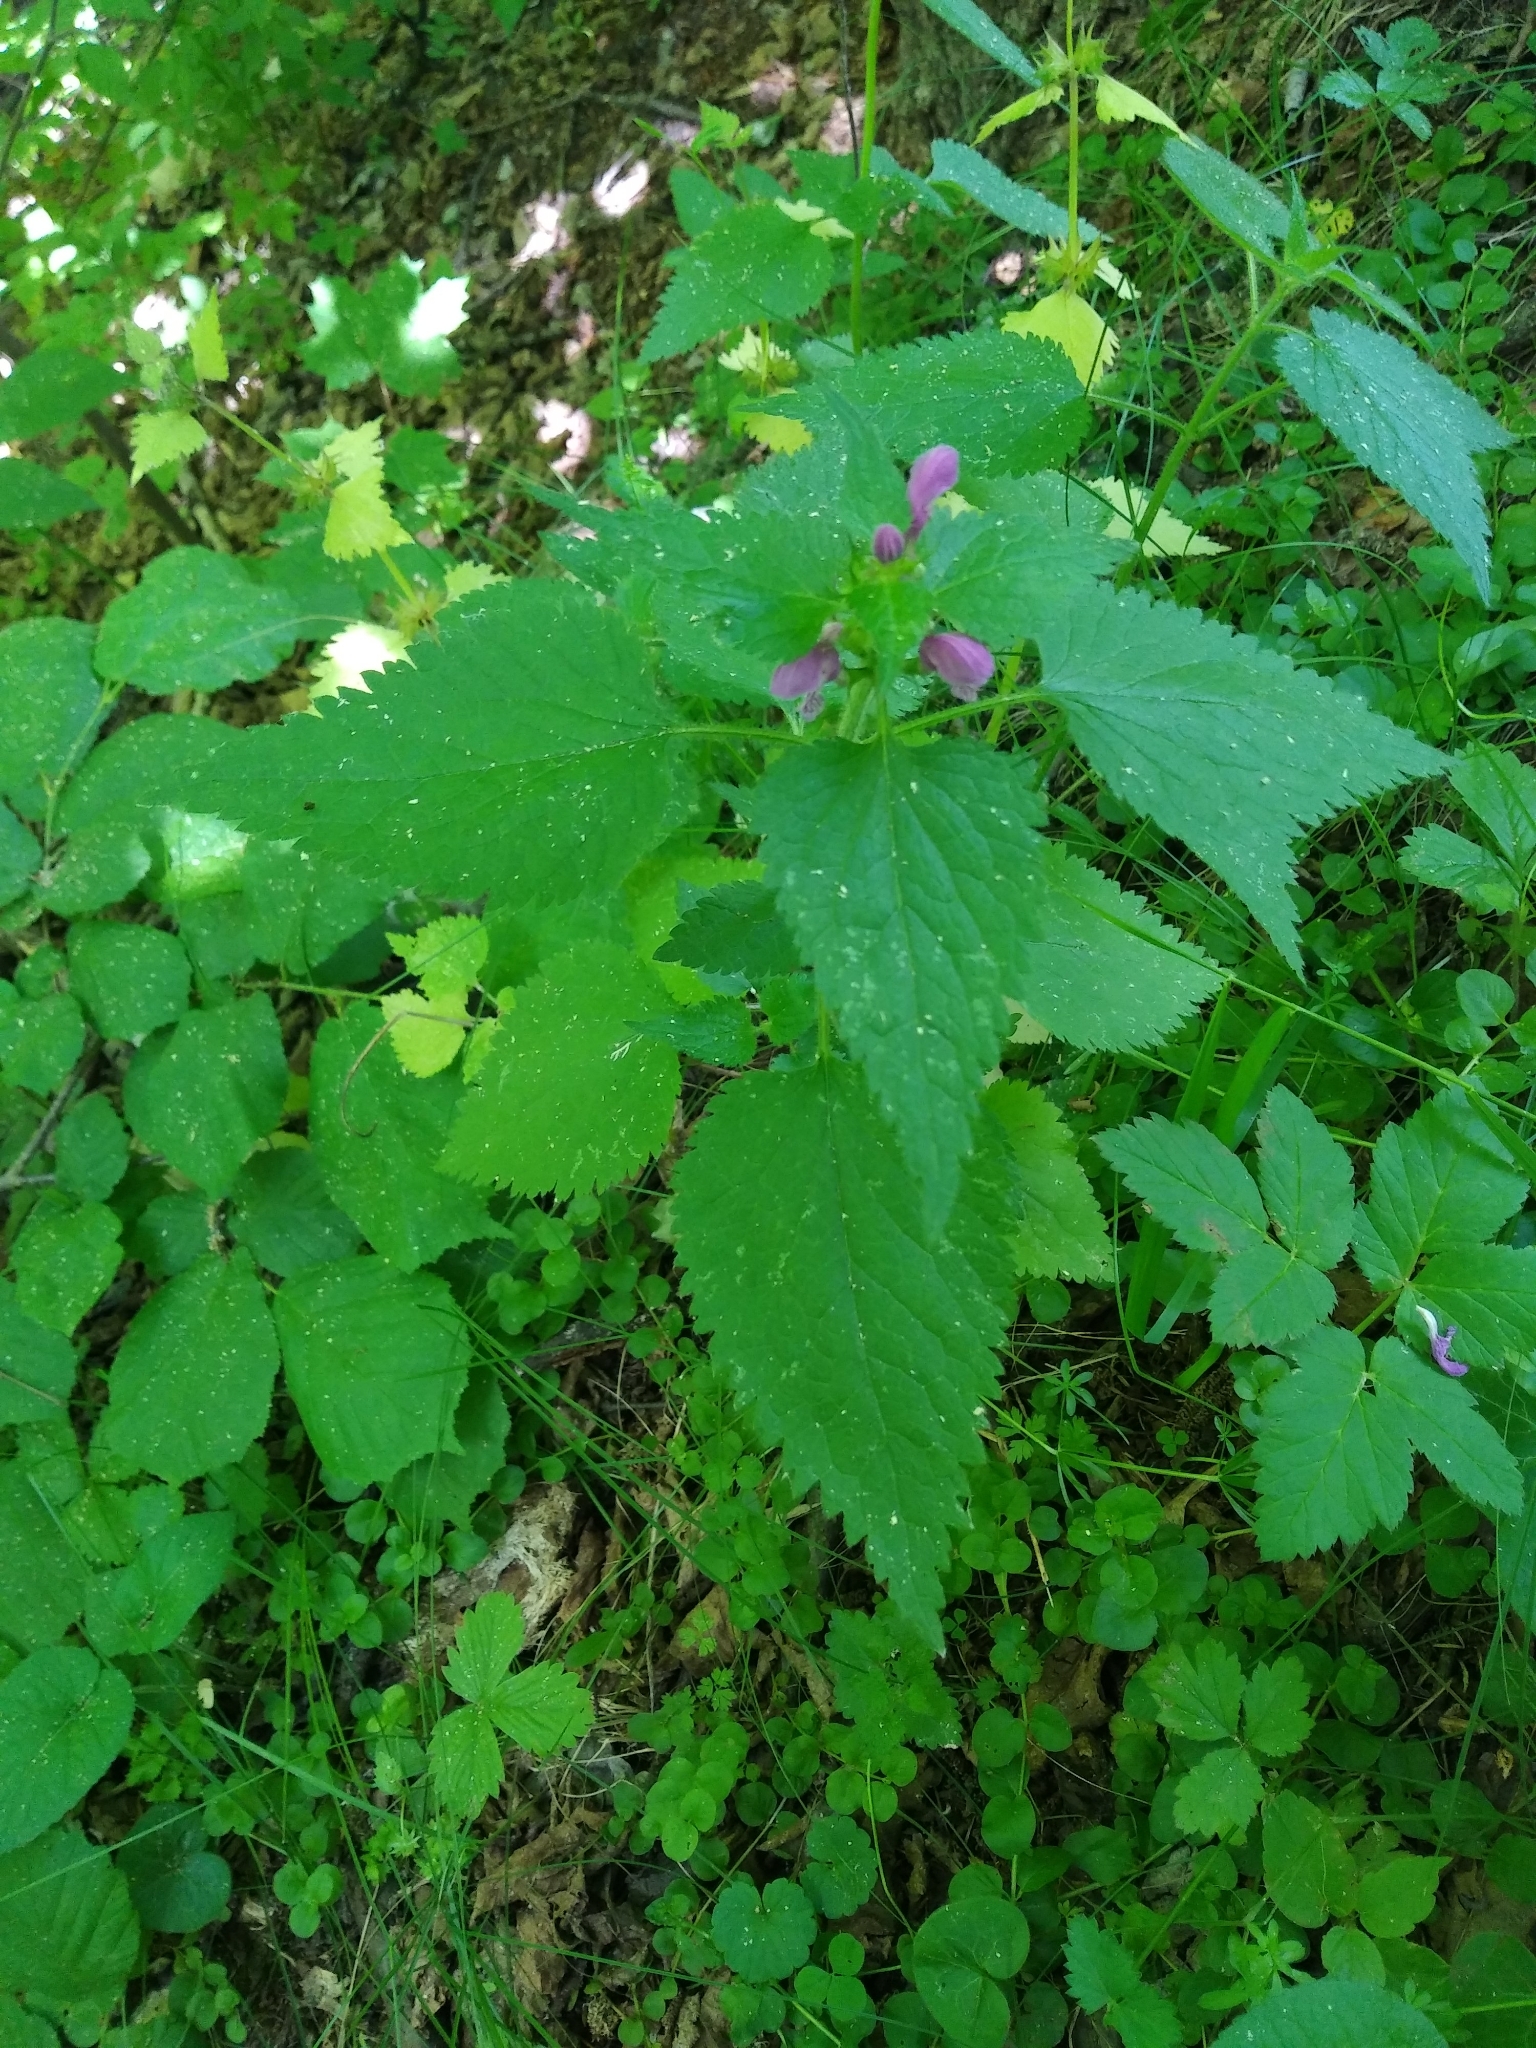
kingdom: Plantae
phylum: Tracheophyta
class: Magnoliopsida
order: Lamiales
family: Lamiaceae
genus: Lamium
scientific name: Lamium maculatum
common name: Spotted dead-nettle
